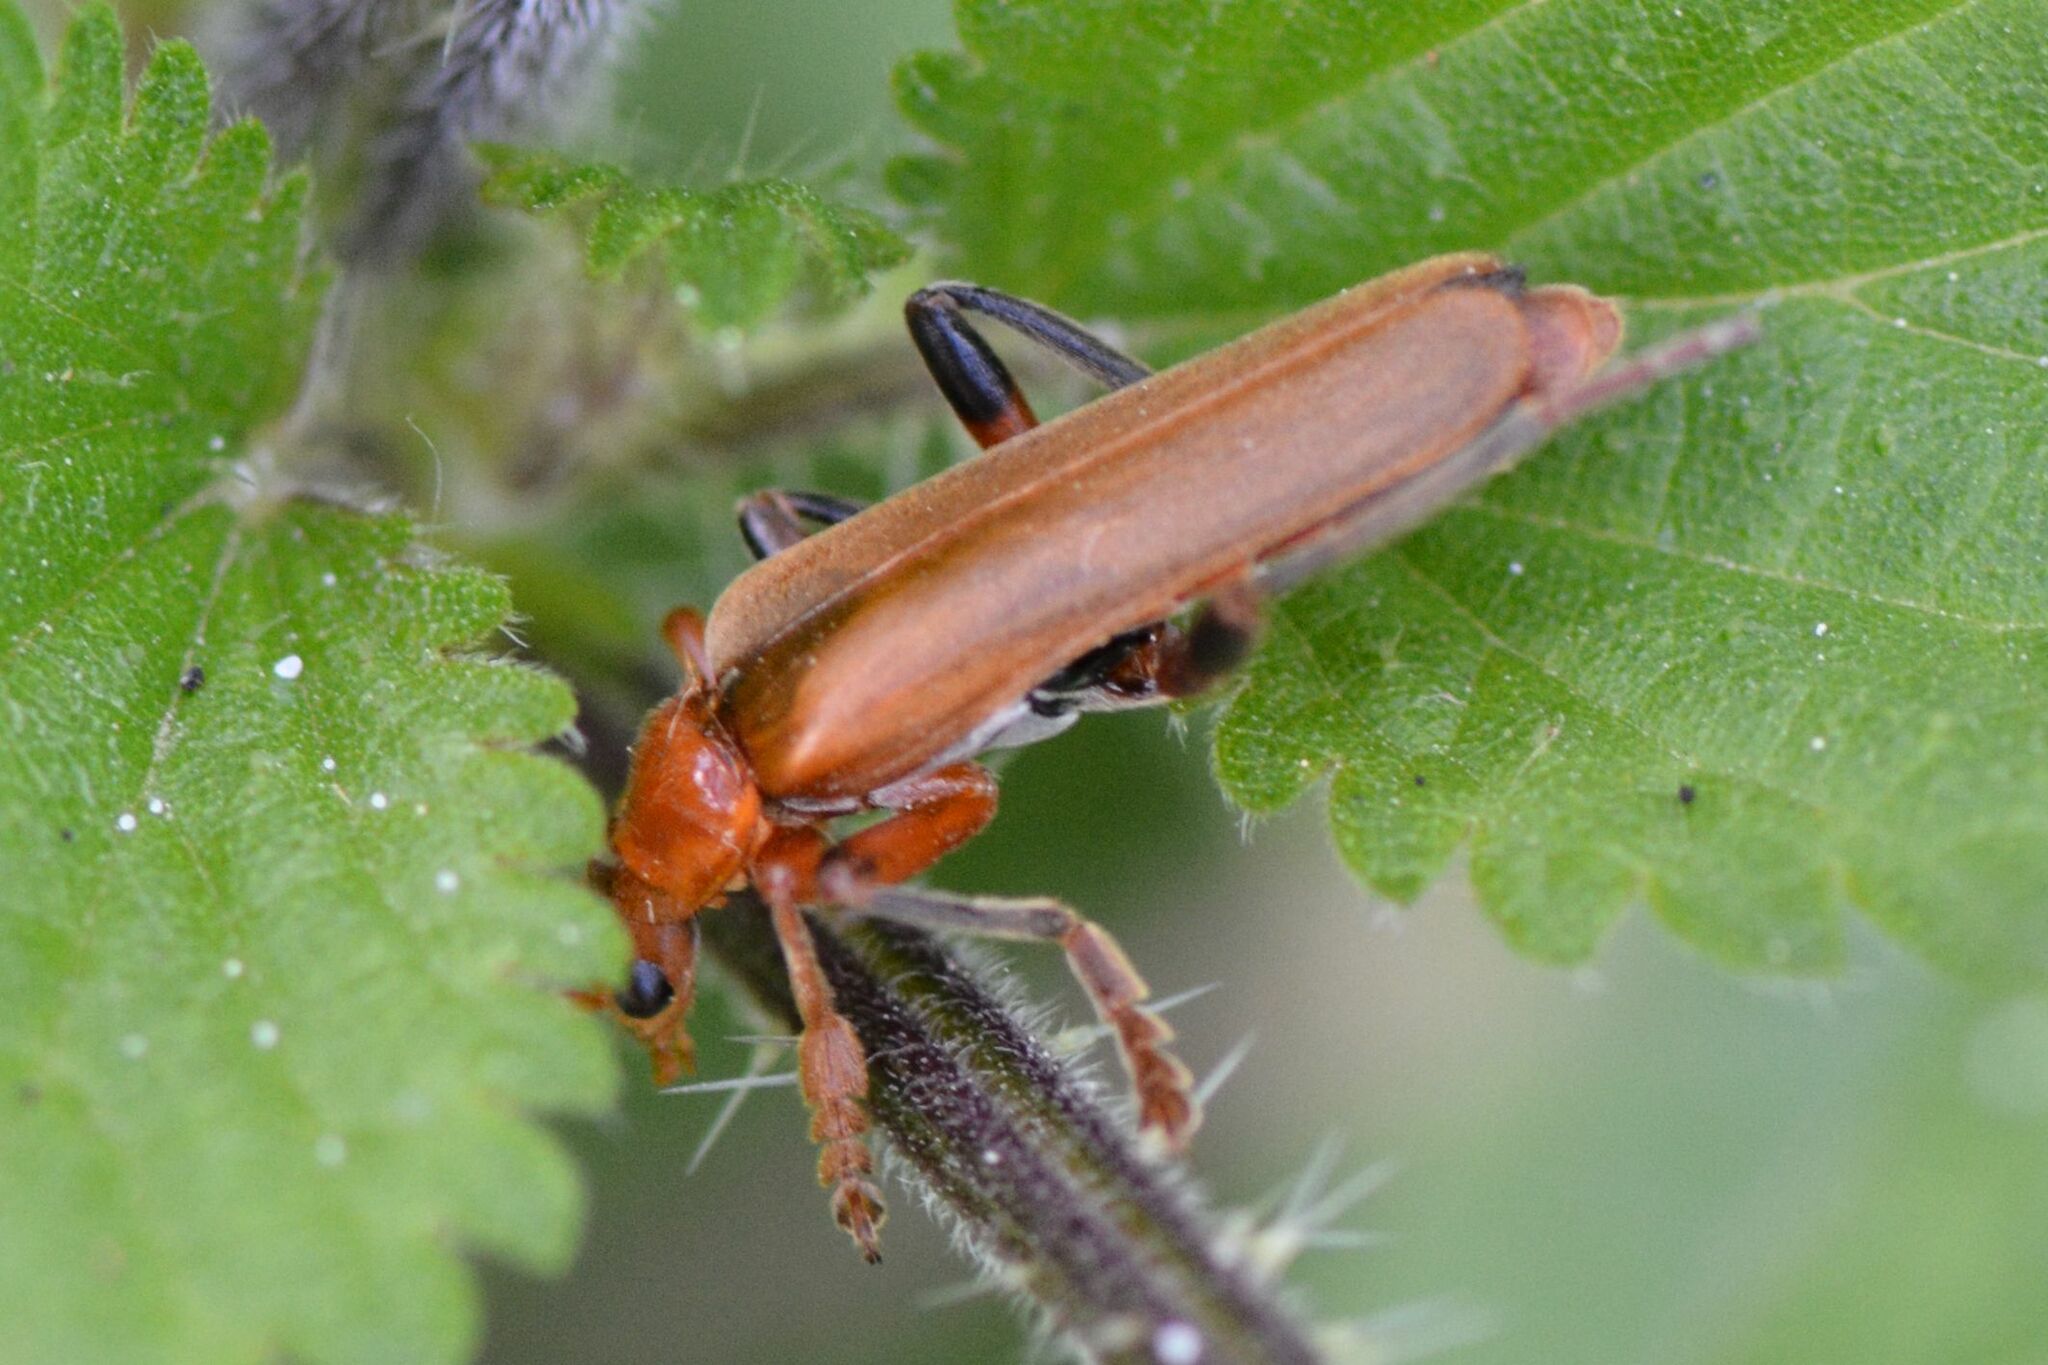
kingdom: Animalia
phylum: Arthropoda
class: Insecta
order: Coleoptera
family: Cantharidae
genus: Cantharis
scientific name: Cantharis livida
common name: Livid soldier beetle
